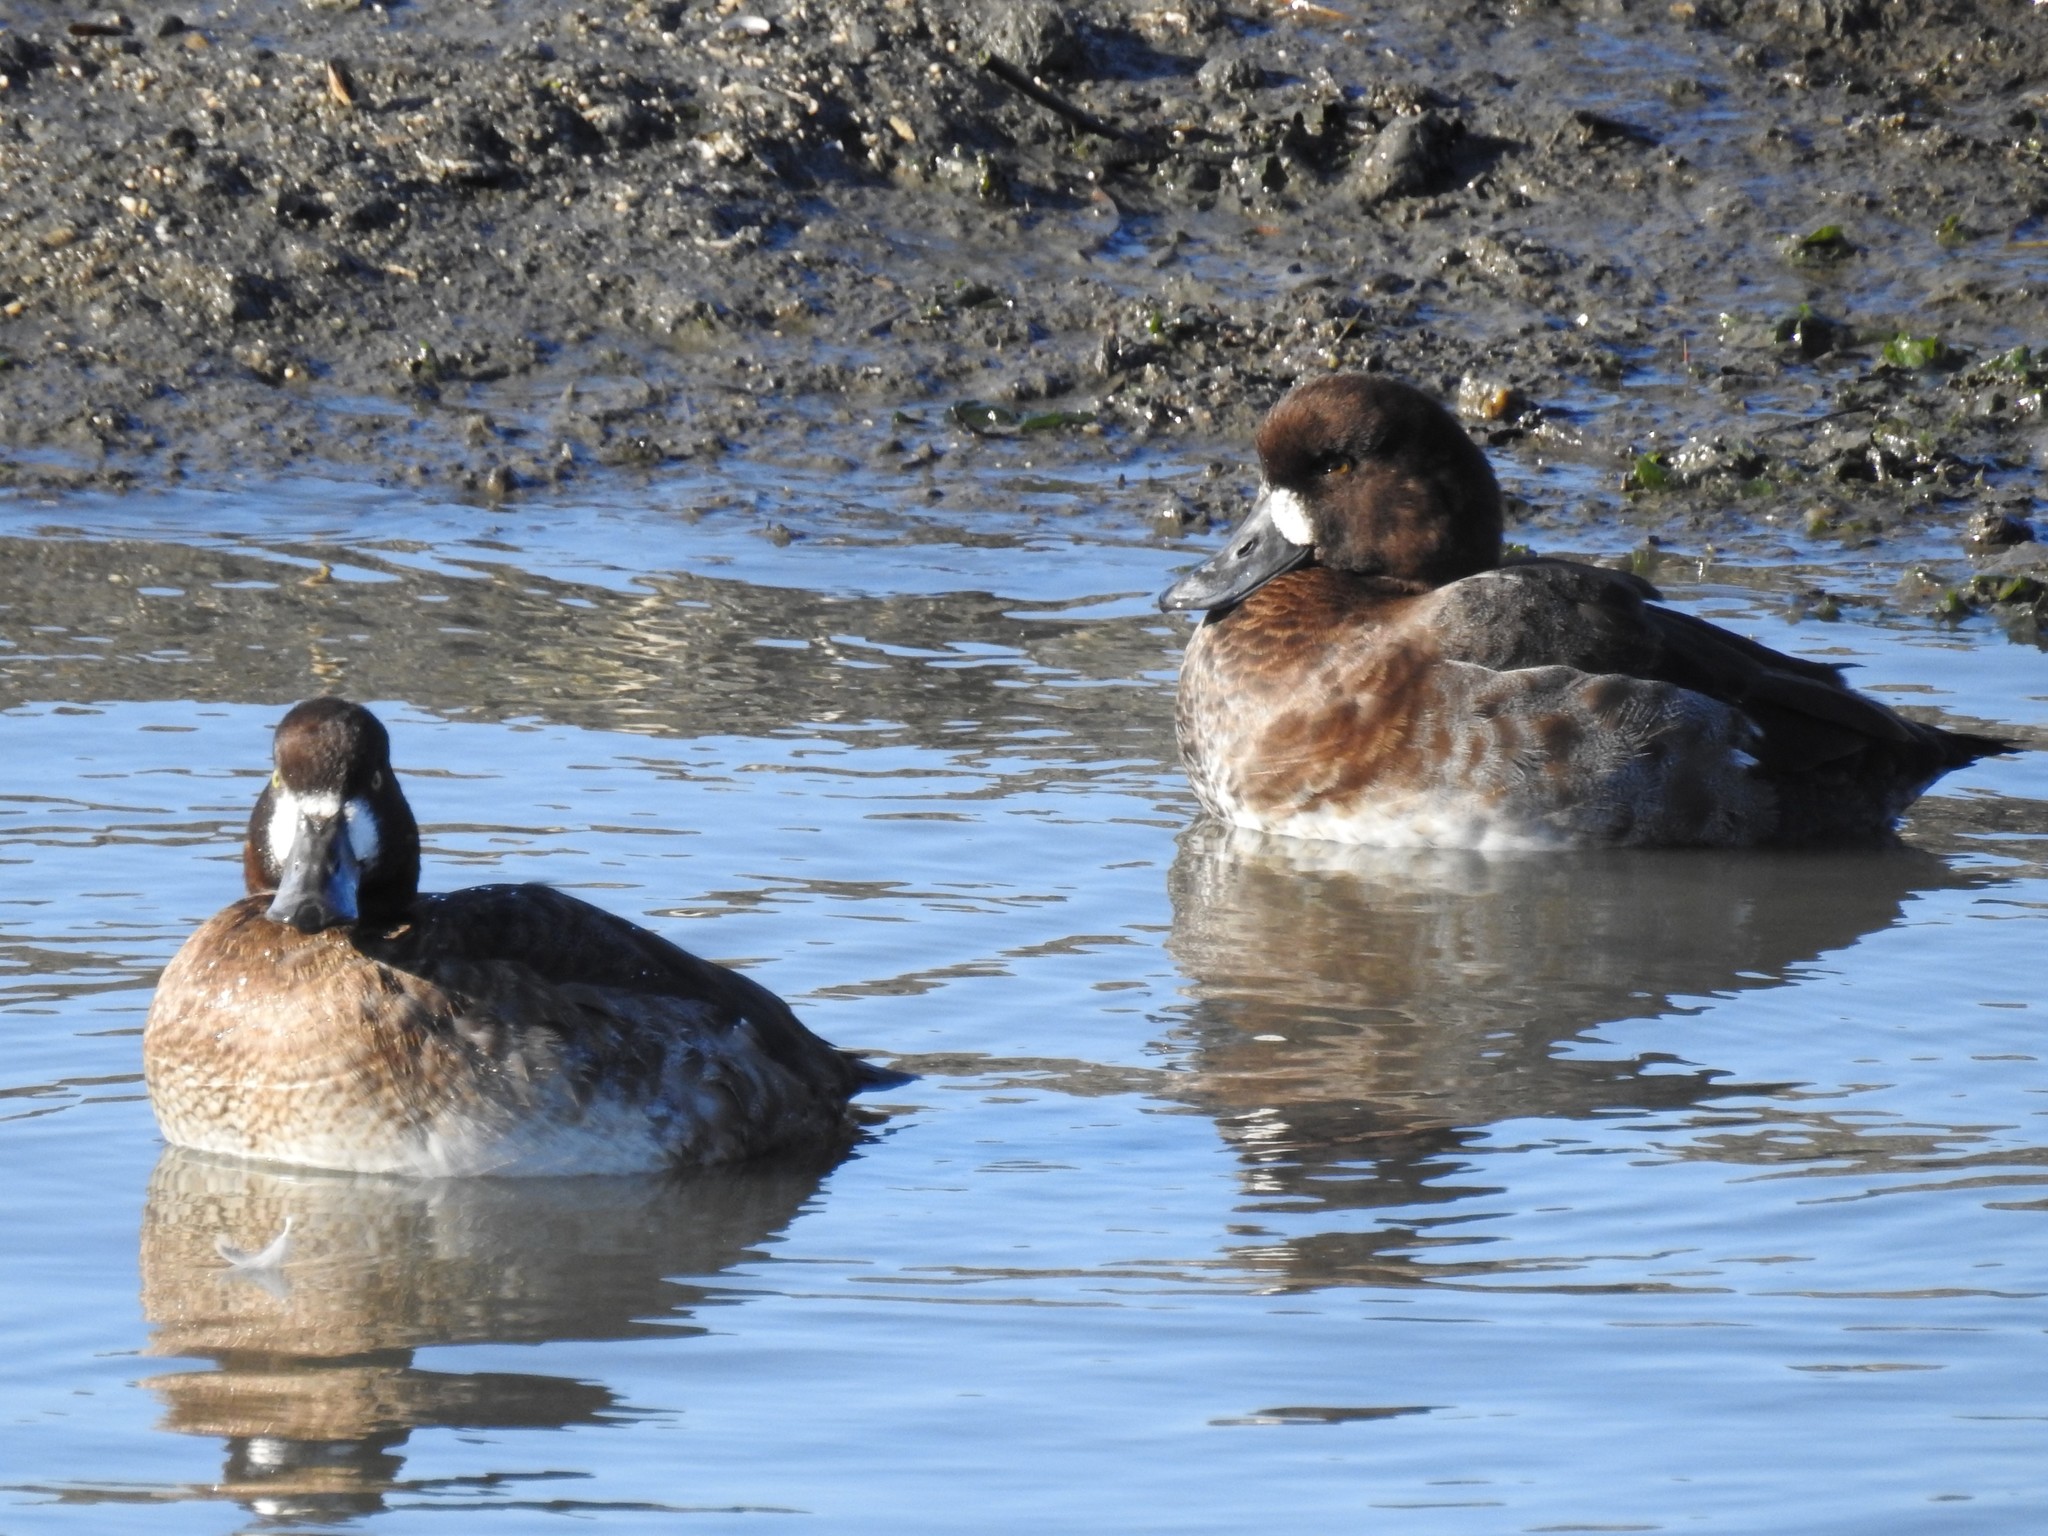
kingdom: Animalia
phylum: Chordata
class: Aves
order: Anseriformes
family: Anatidae
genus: Aythya
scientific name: Aythya marila
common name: Greater scaup
